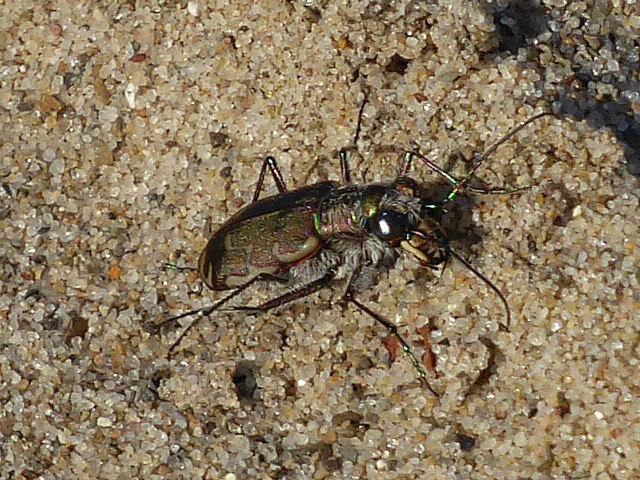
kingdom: Animalia
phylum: Arthropoda
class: Insecta
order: Coleoptera
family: Carabidae
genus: Cicindela
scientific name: Cicindela repanda
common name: Bronzed tiger beetle
